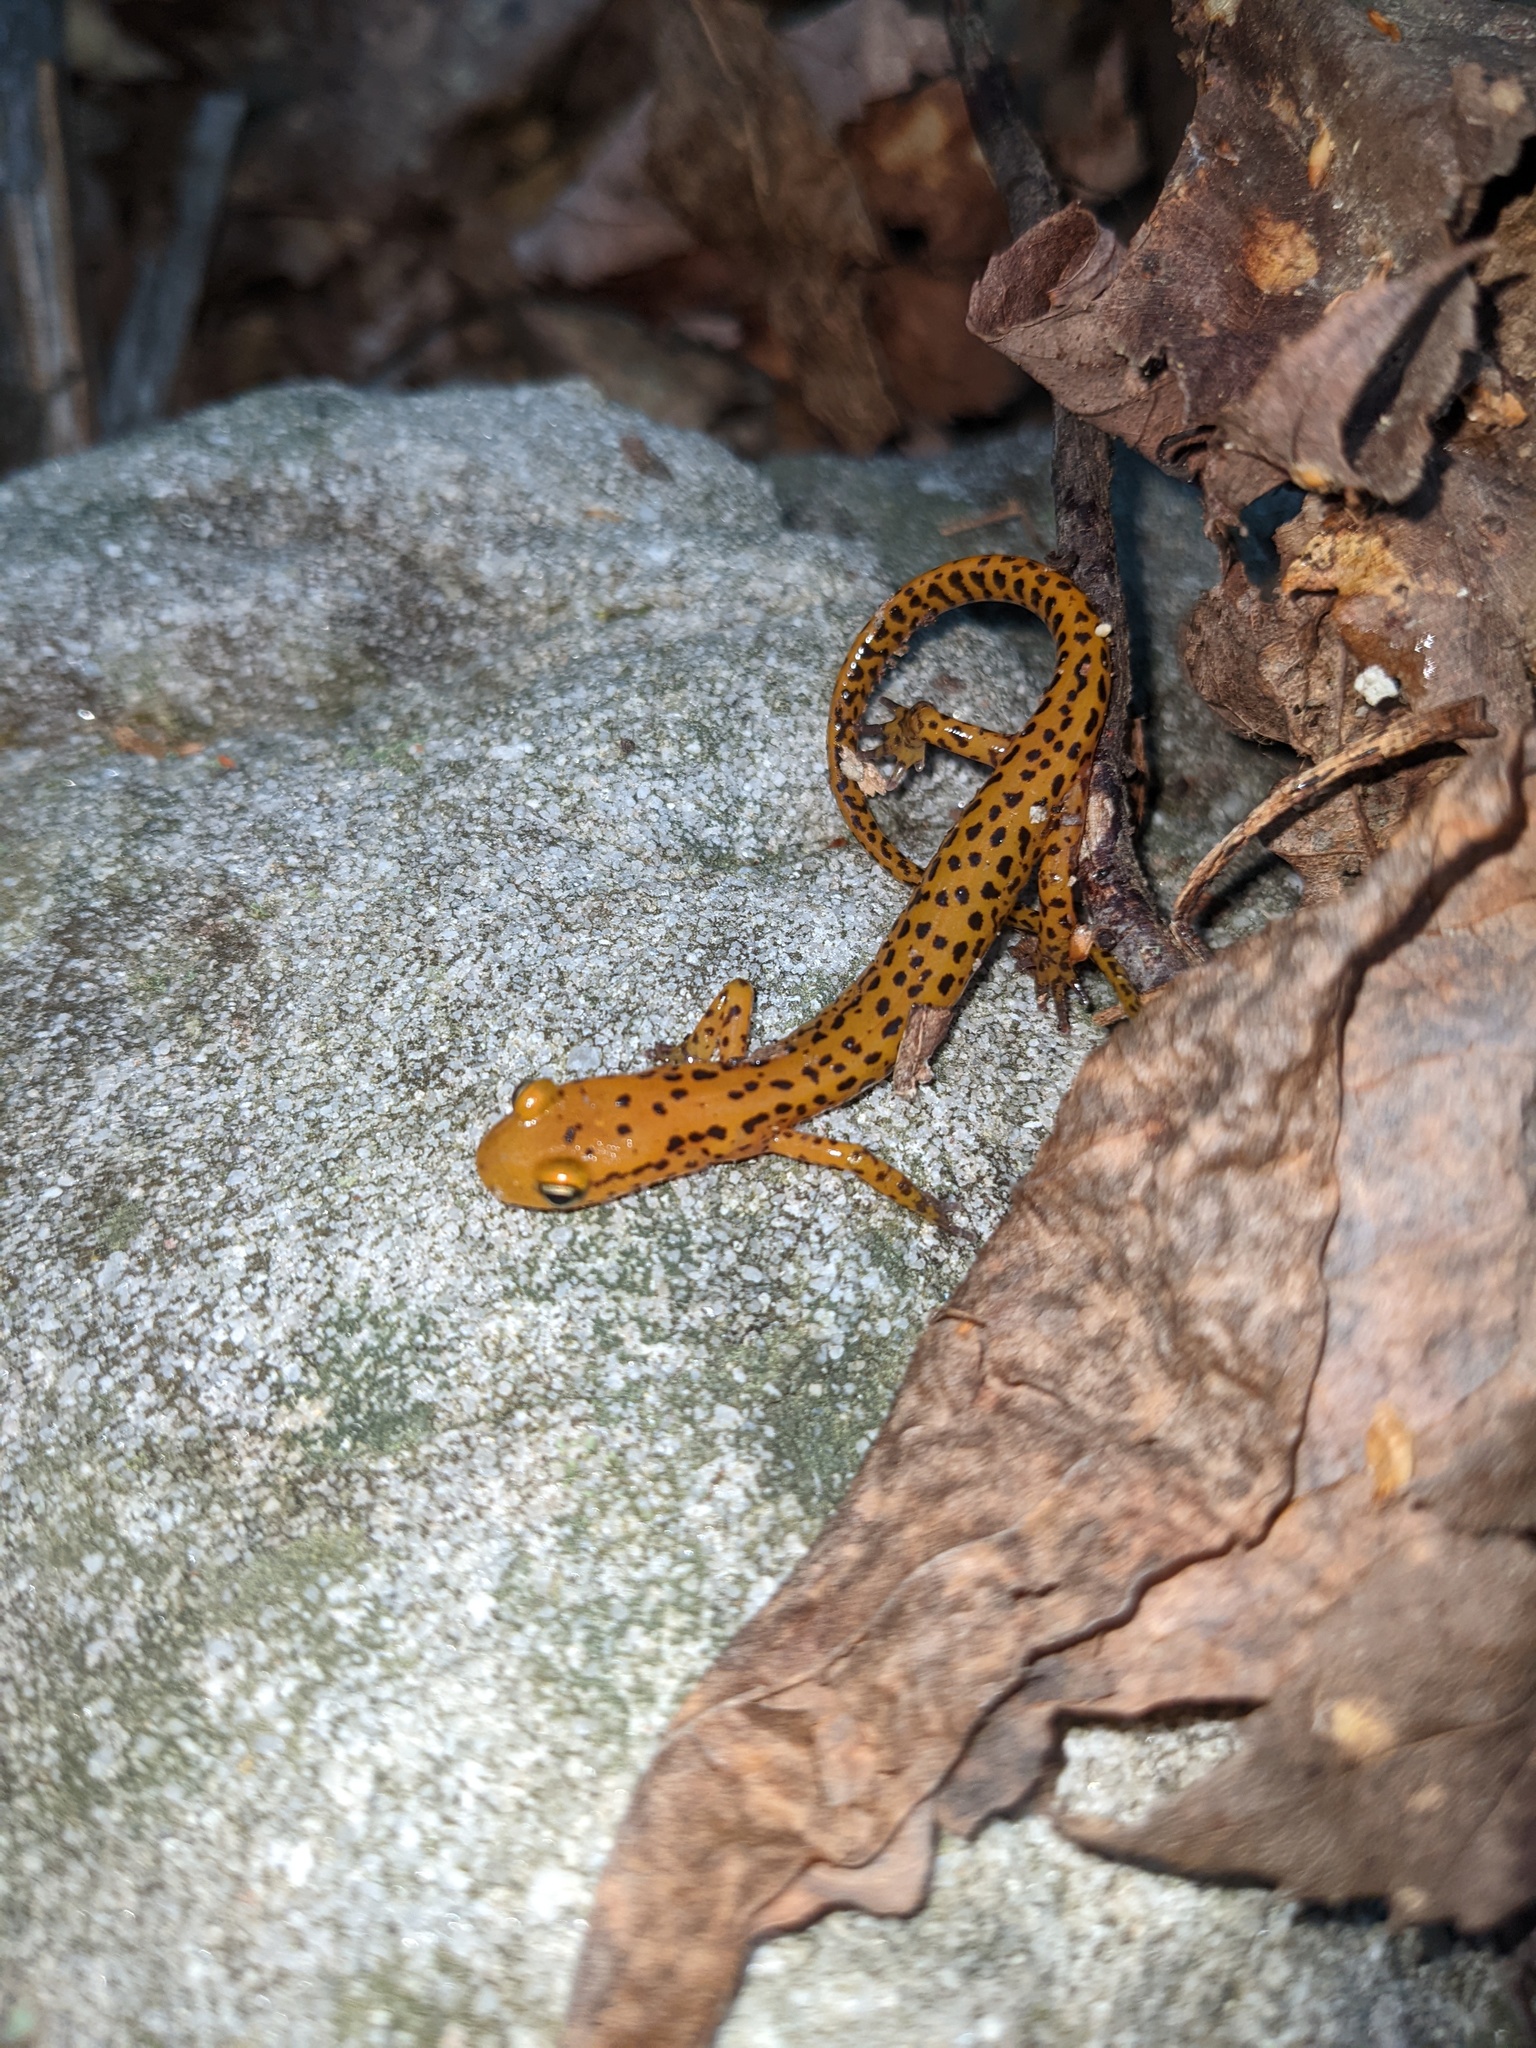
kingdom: Animalia
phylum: Chordata
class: Amphibia
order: Caudata
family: Plethodontidae
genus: Eurycea
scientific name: Eurycea longicauda
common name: Long-tailed salamander
